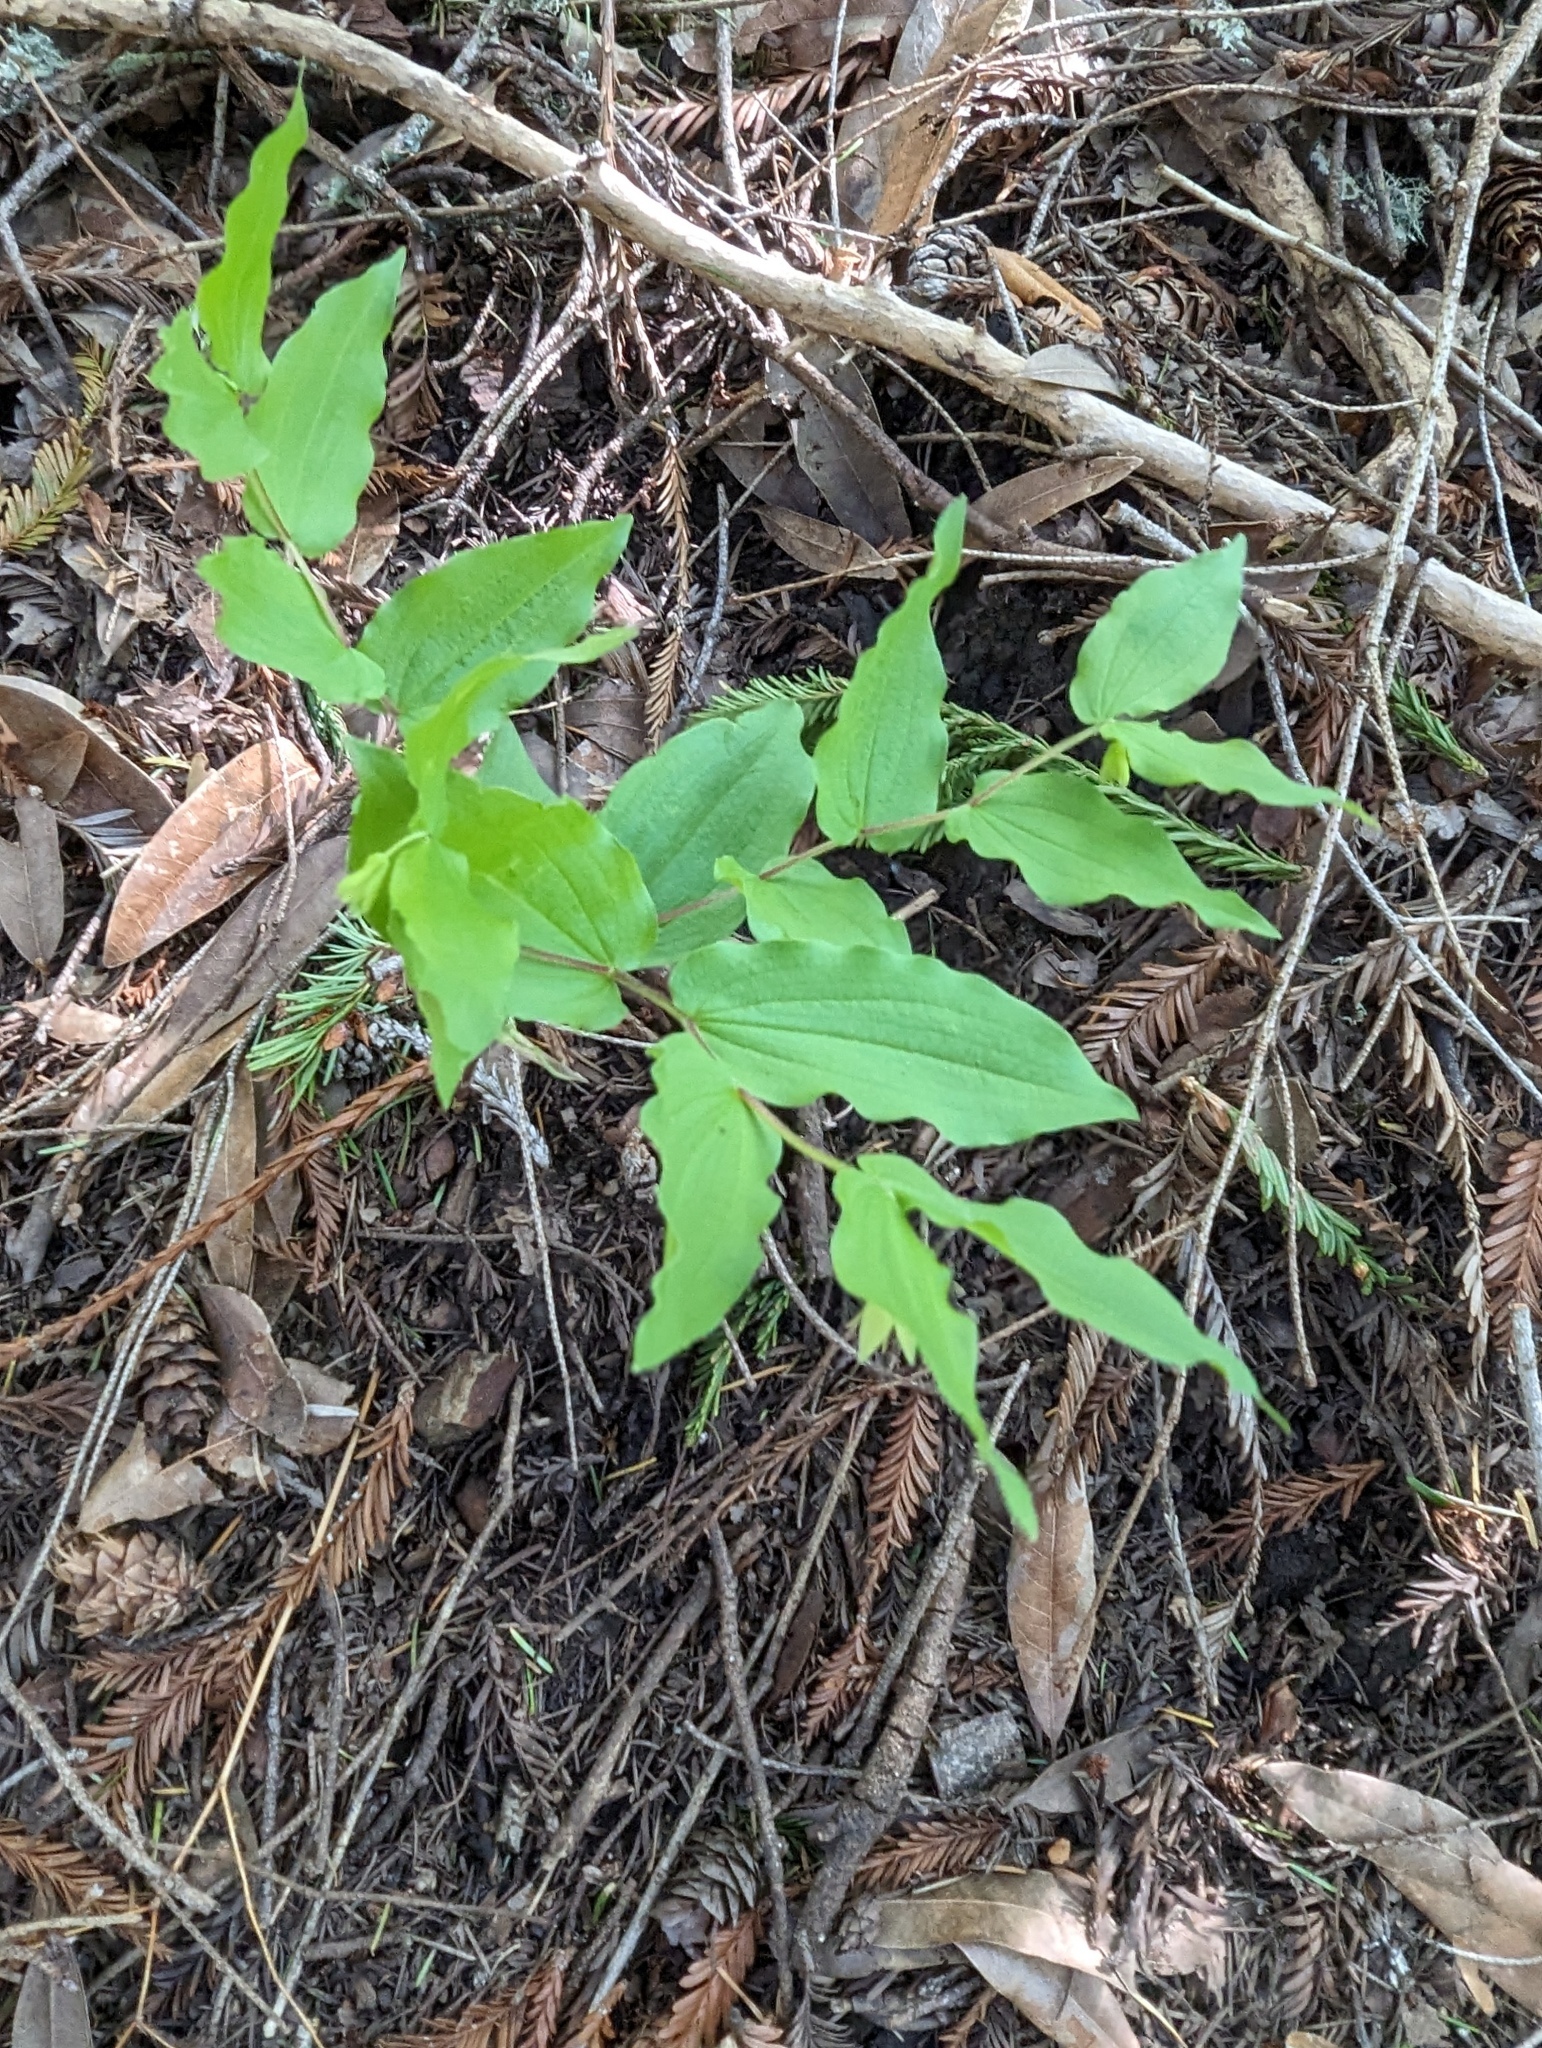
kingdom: Plantae
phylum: Tracheophyta
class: Liliopsida
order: Liliales
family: Liliaceae
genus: Prosartes
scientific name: Prosartes hookeri
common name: Fairy-bells
